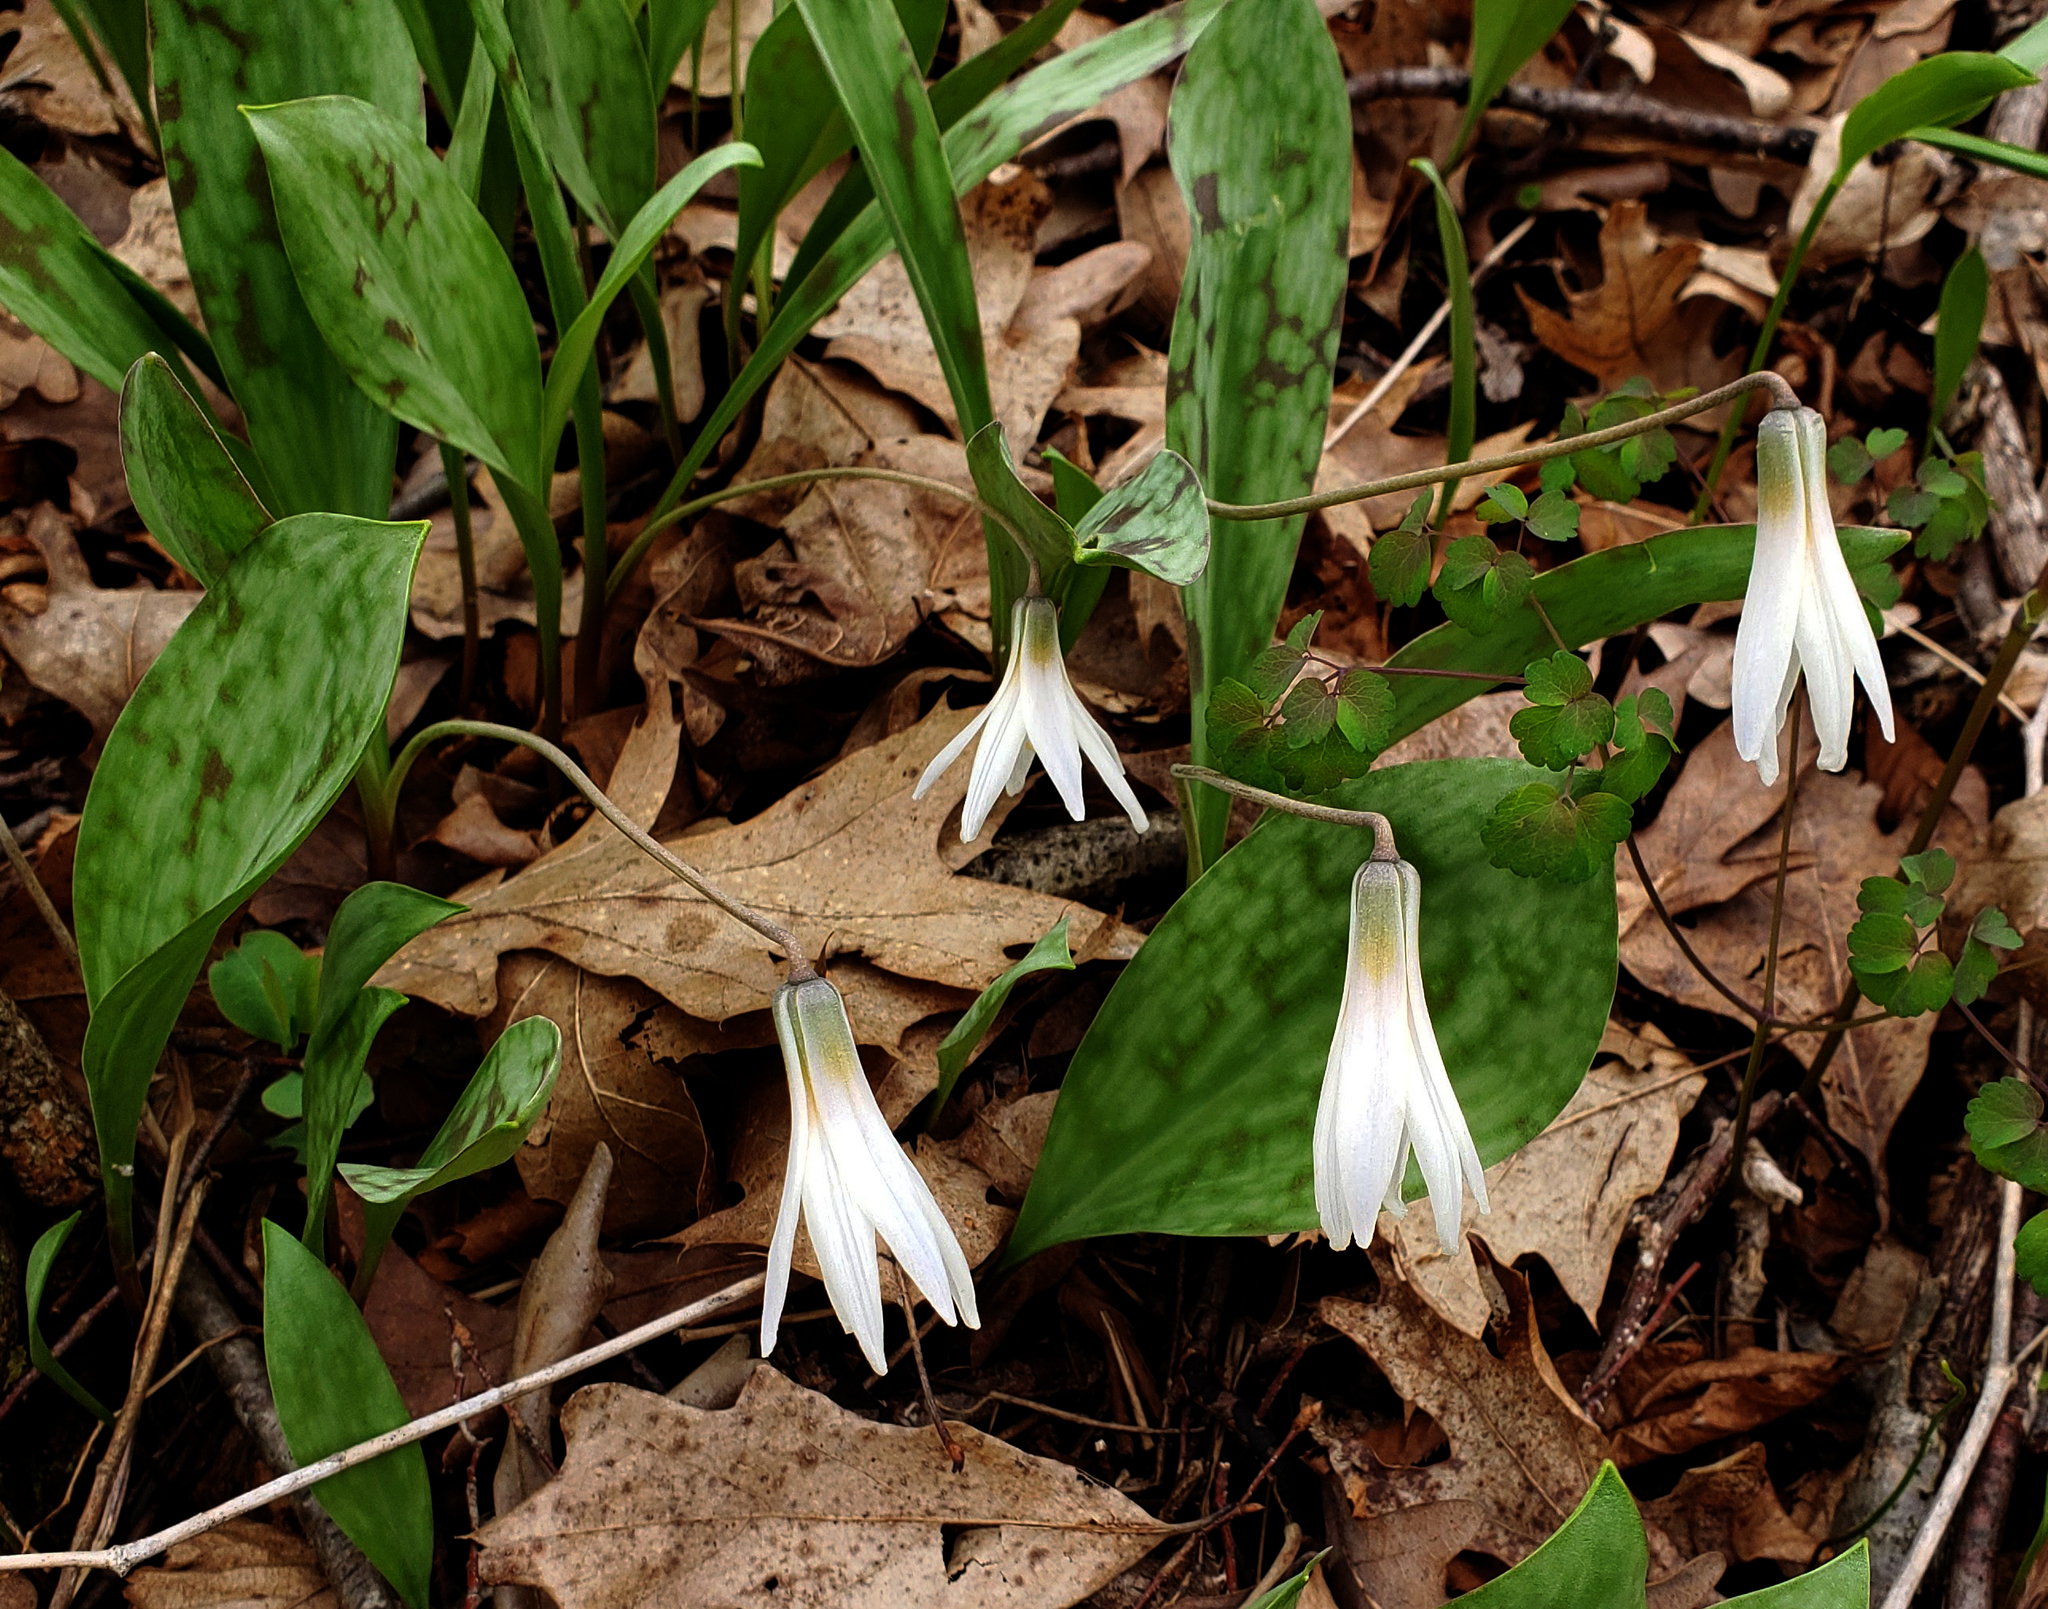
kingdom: Plantae
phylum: Tracheophyta
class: Liliopsida
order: Liliales
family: Liliaceae
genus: Erythronium
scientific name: Erythronium albidum
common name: White trout-lily
